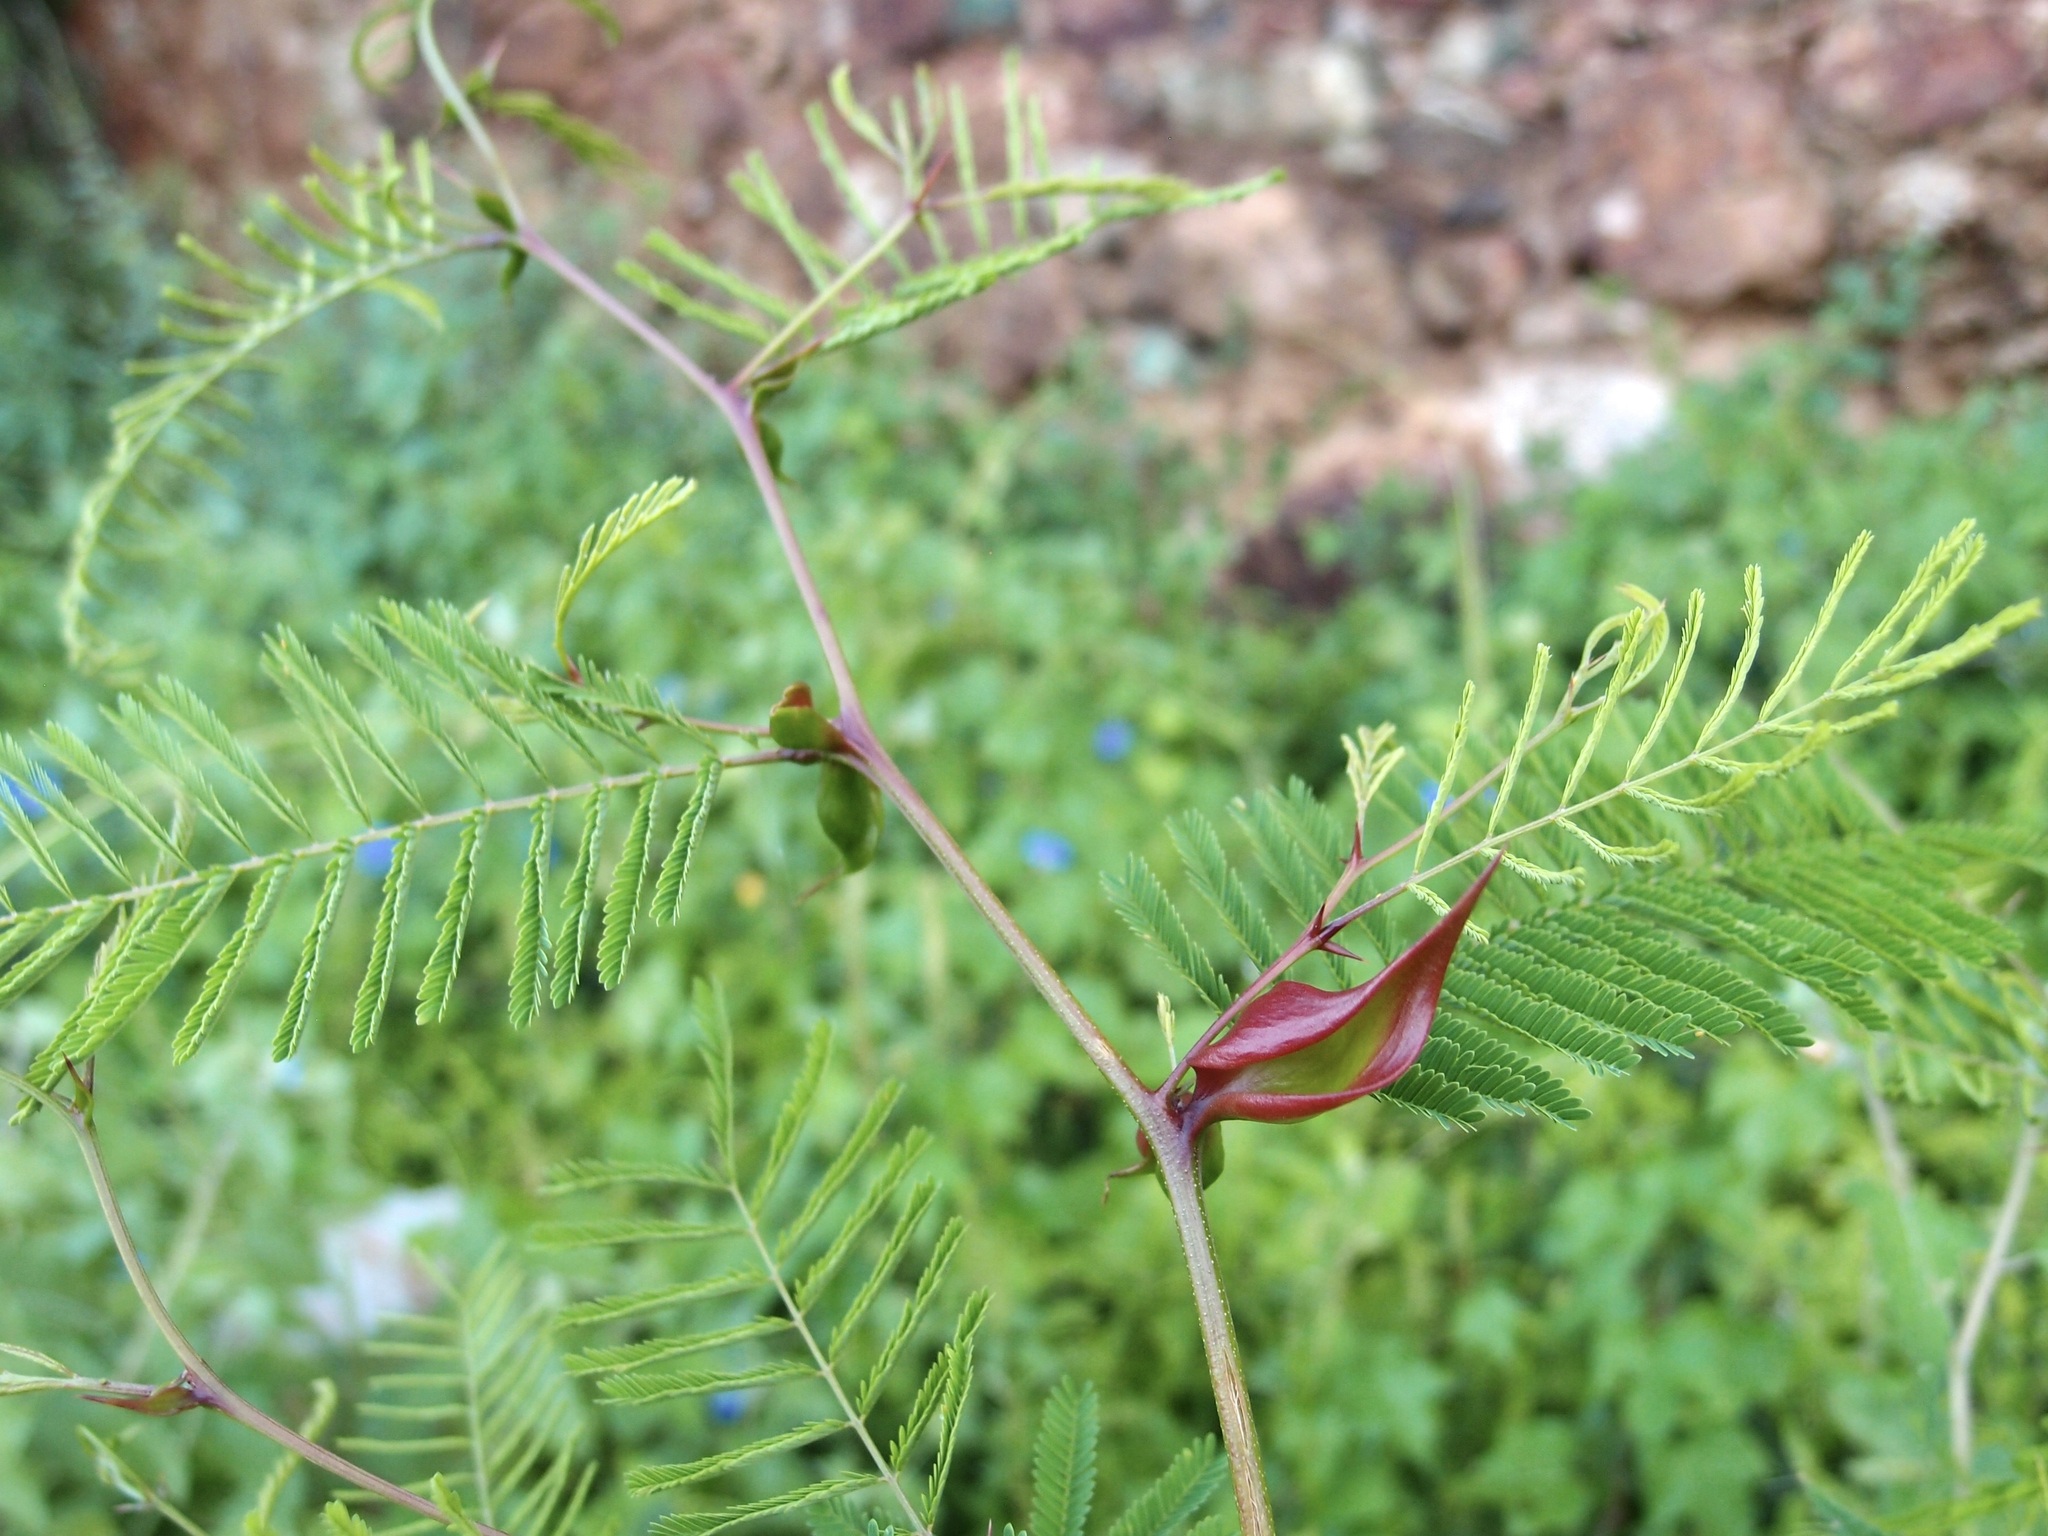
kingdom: Plantae
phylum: Tracheophyta
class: Magnoliopsida
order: Fabales
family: Fabaceae
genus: Vachellia
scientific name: Vachellia campechiana
